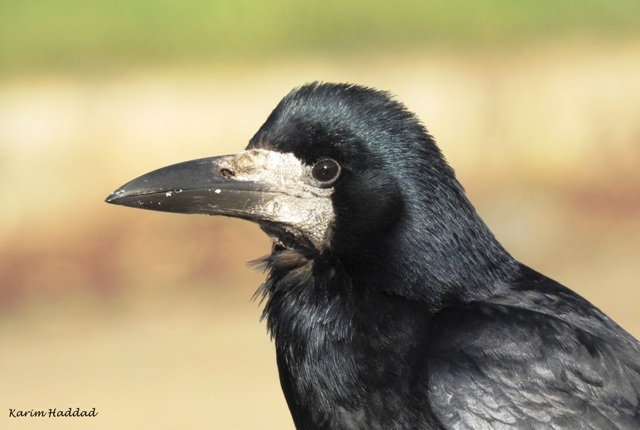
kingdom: Animalia
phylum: Chordata
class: Aves
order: Passeriformes
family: Corvidae
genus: Corvus
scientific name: Corvus frugilegus
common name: Rook
